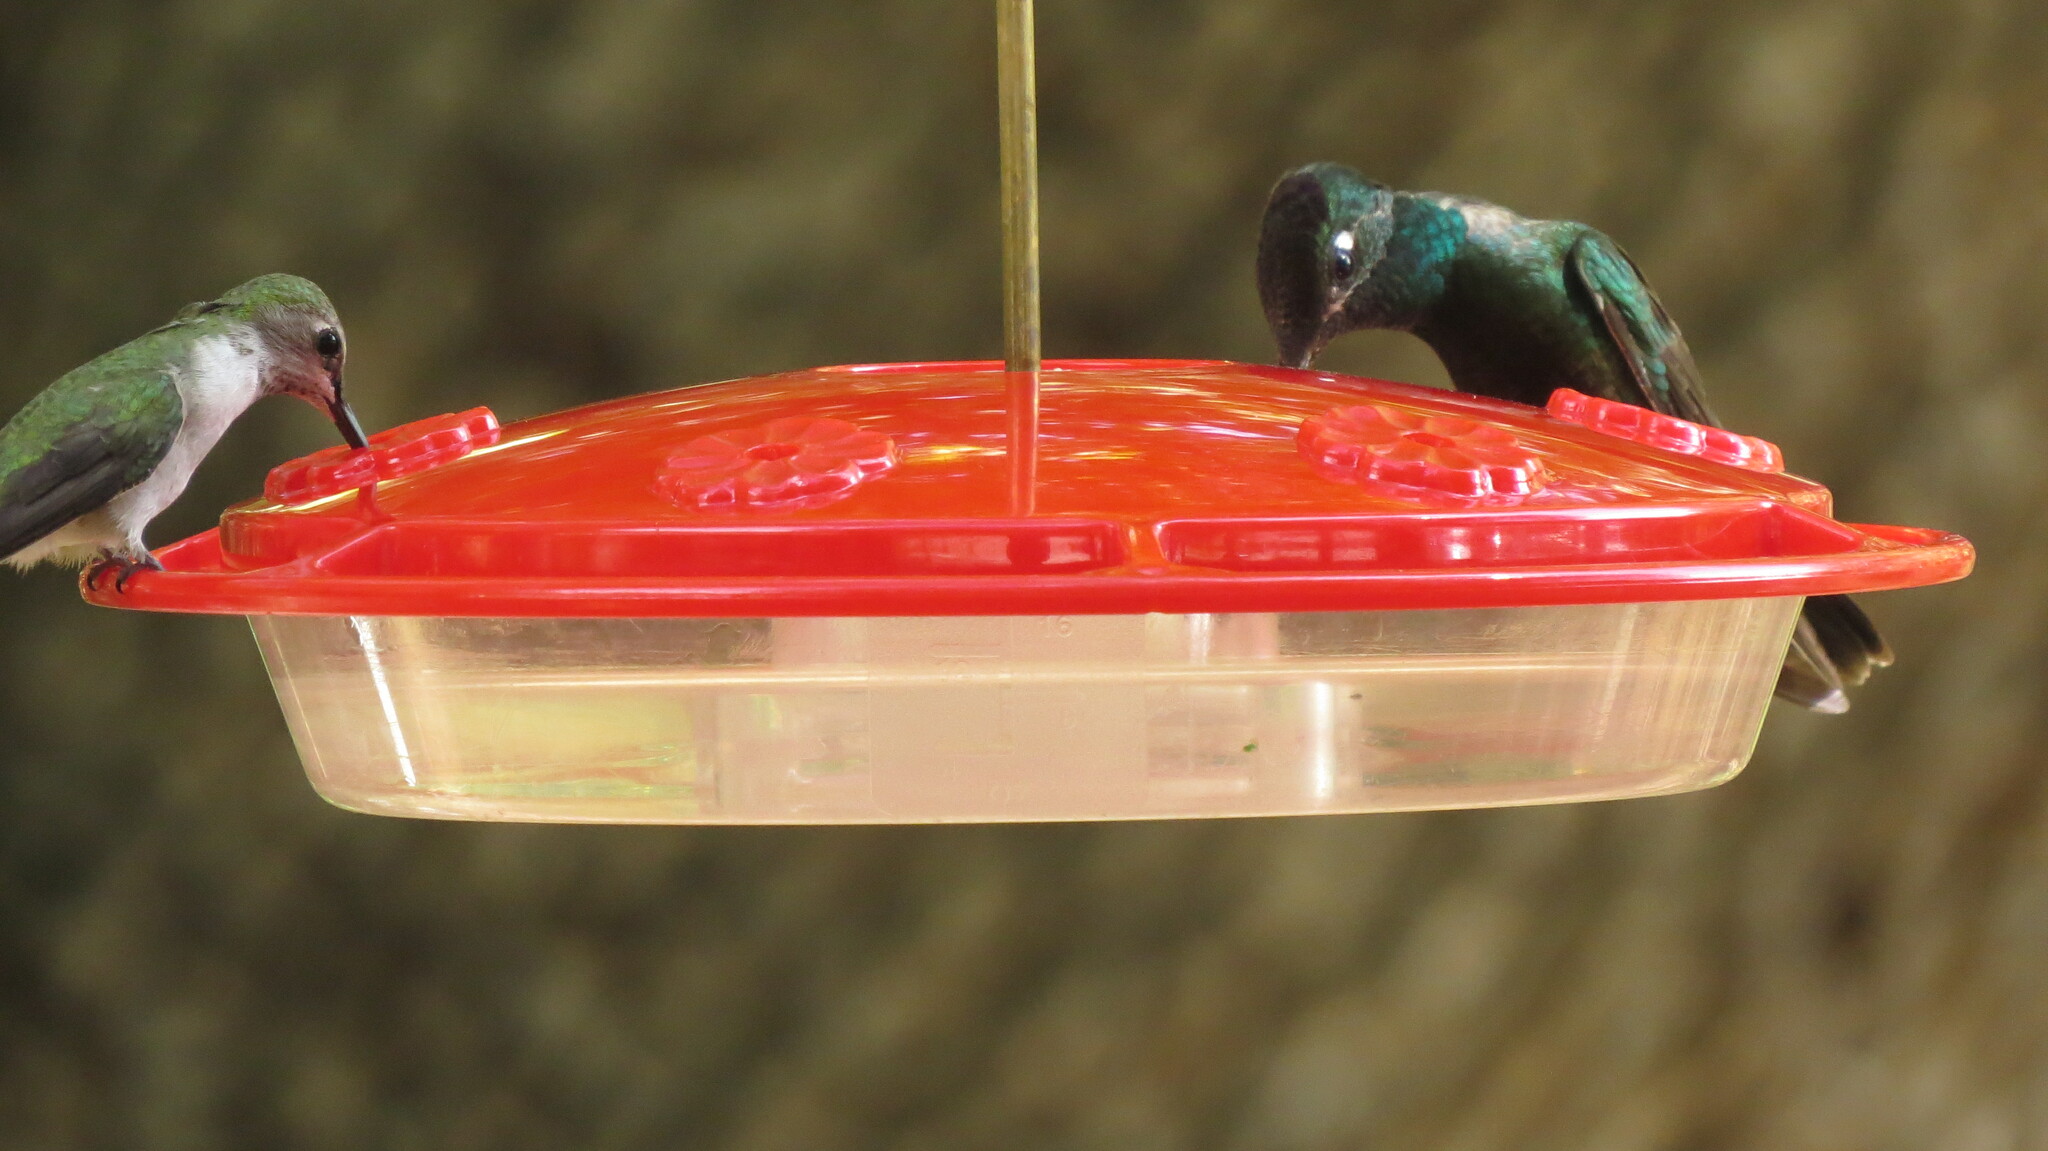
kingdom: Animalia
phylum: Chordata
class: Aves
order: Apodiformes
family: Trochilidae
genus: Eugenes
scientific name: Eugenes fulgens
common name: Magnificent hummingbird
